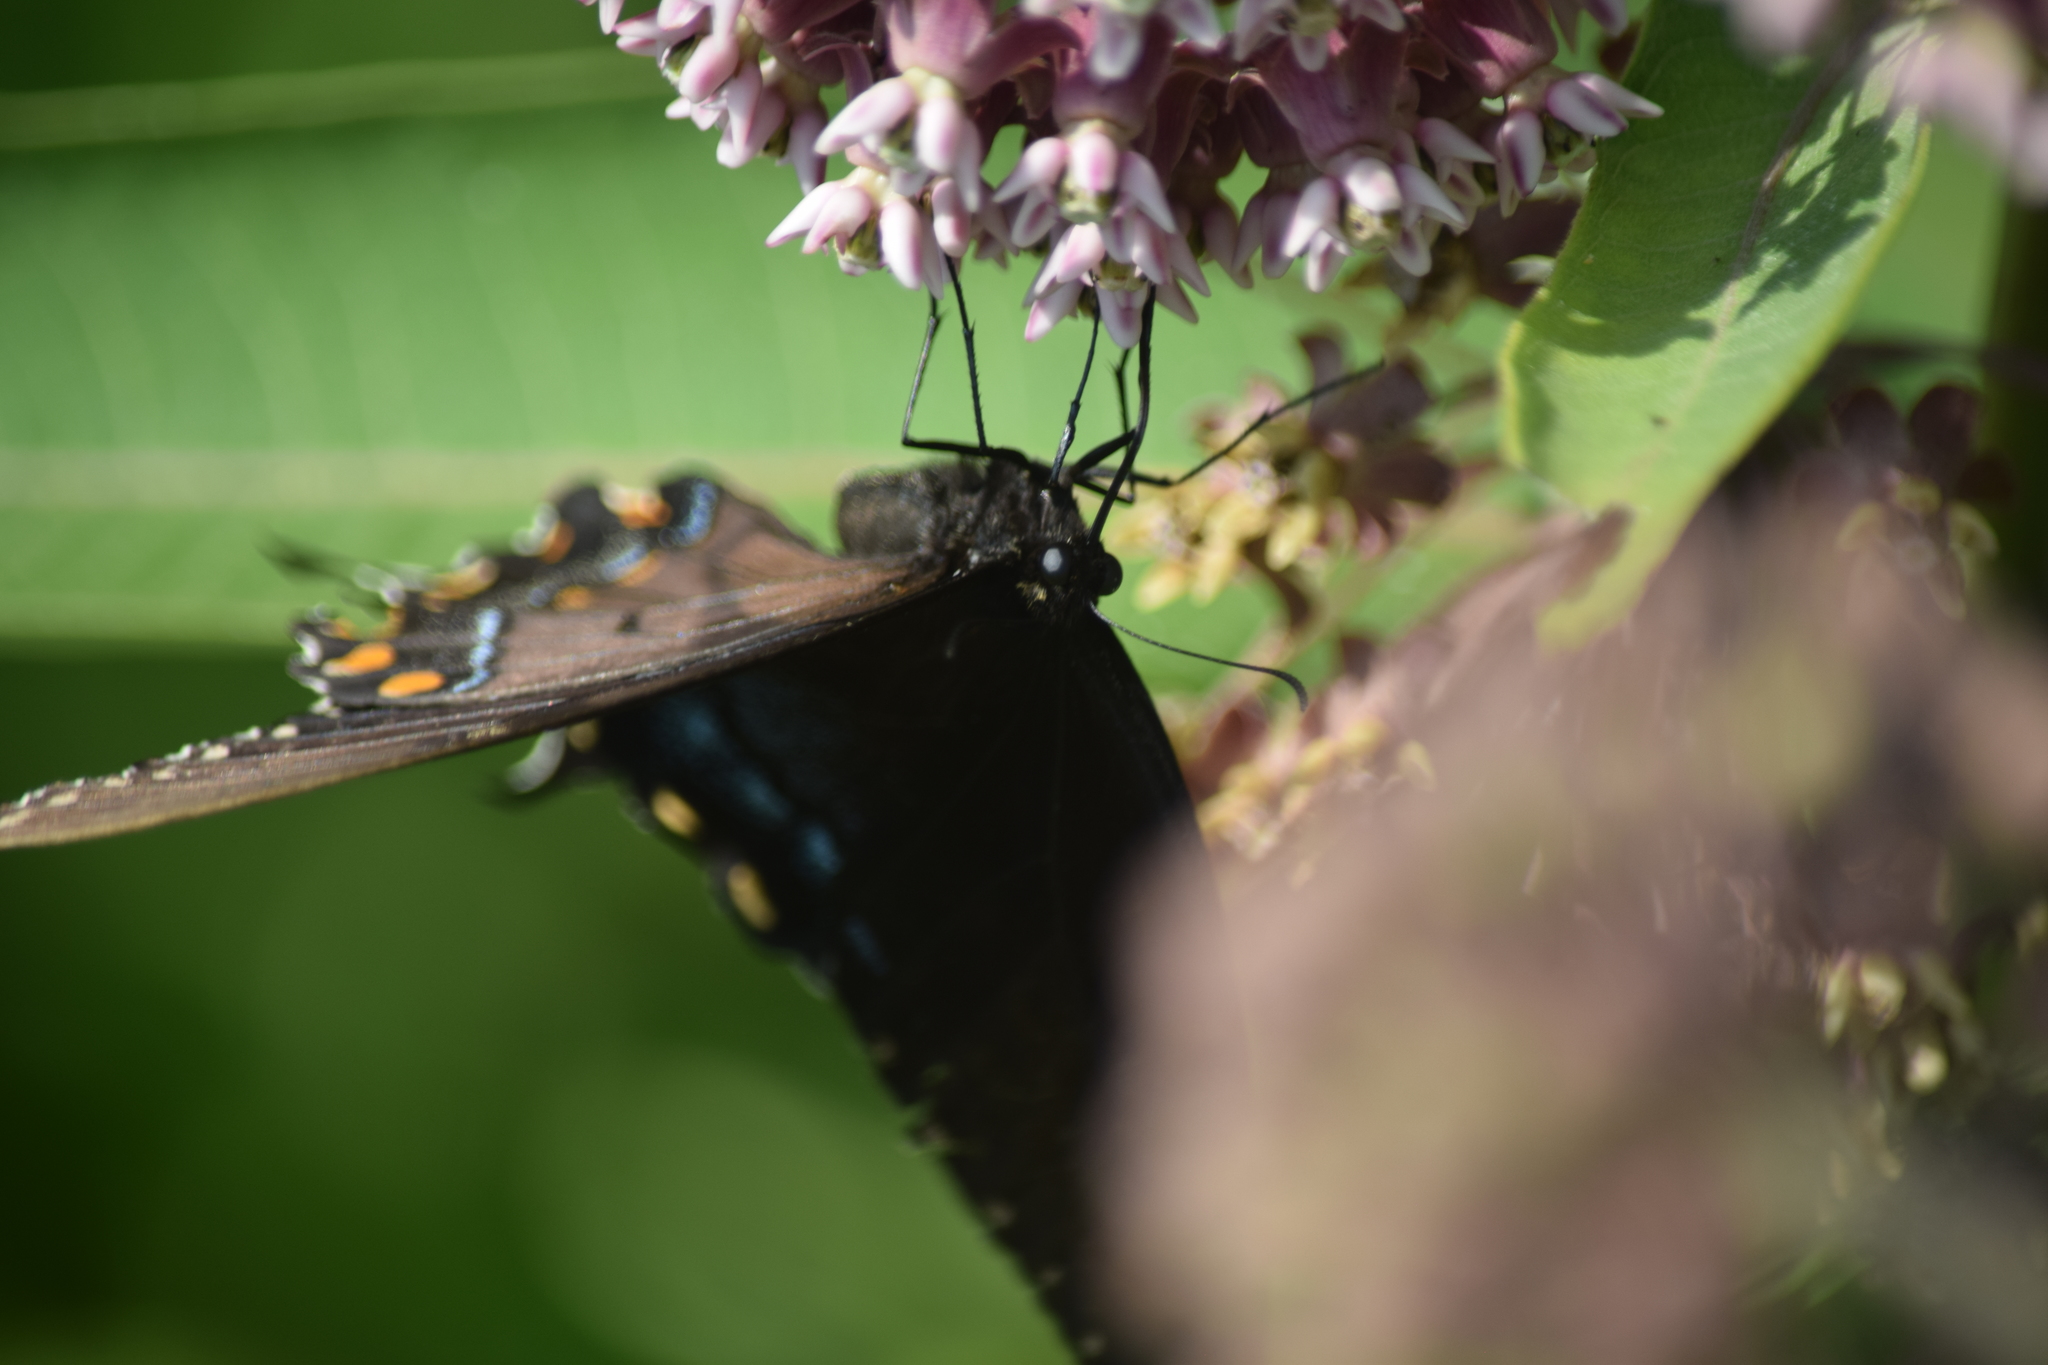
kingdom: Animalia
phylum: Arthropoda
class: Insecta
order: Lepidoptera
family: Papilionidae
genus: Papilio
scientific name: Papilio glaucus
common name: Tiger swallowtail
